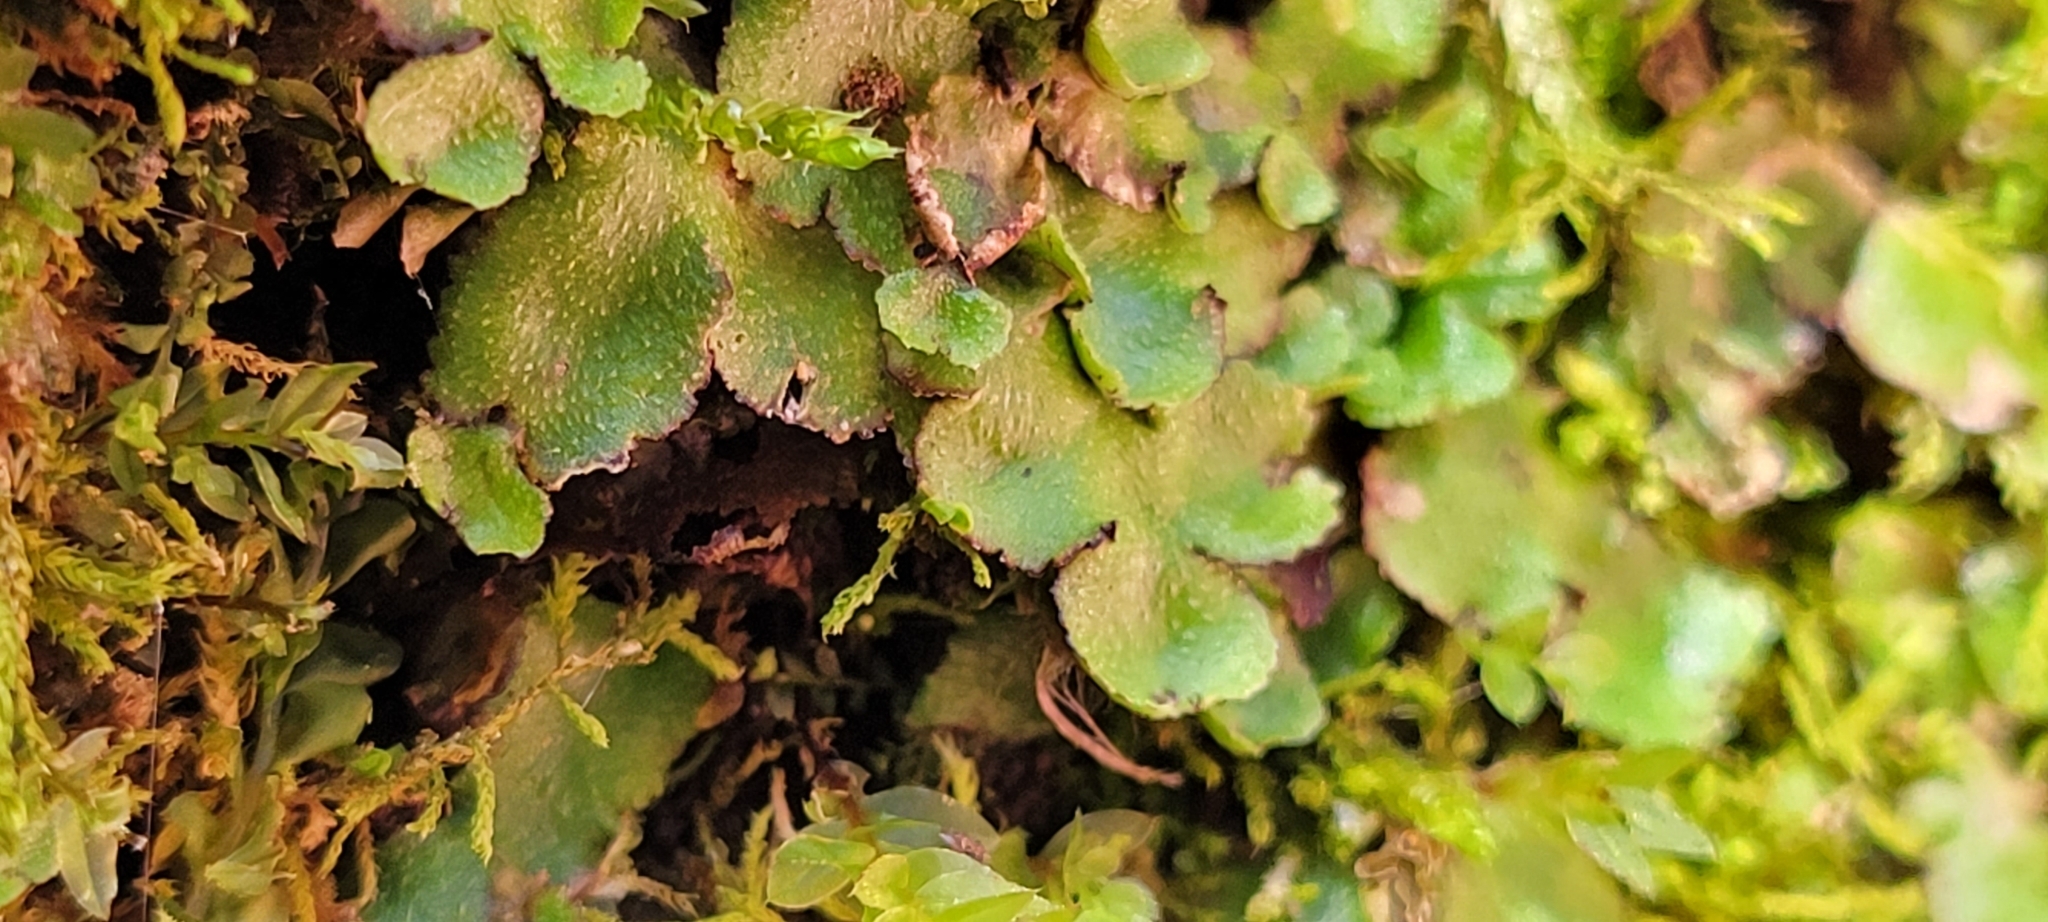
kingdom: Plantae
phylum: Marchantiophyta
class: Marchantiopsida
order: Marchantiales
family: Aytoniaceae
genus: Reboulia
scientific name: Reboulia hemisphaerica
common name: Purple-margined liverwort
